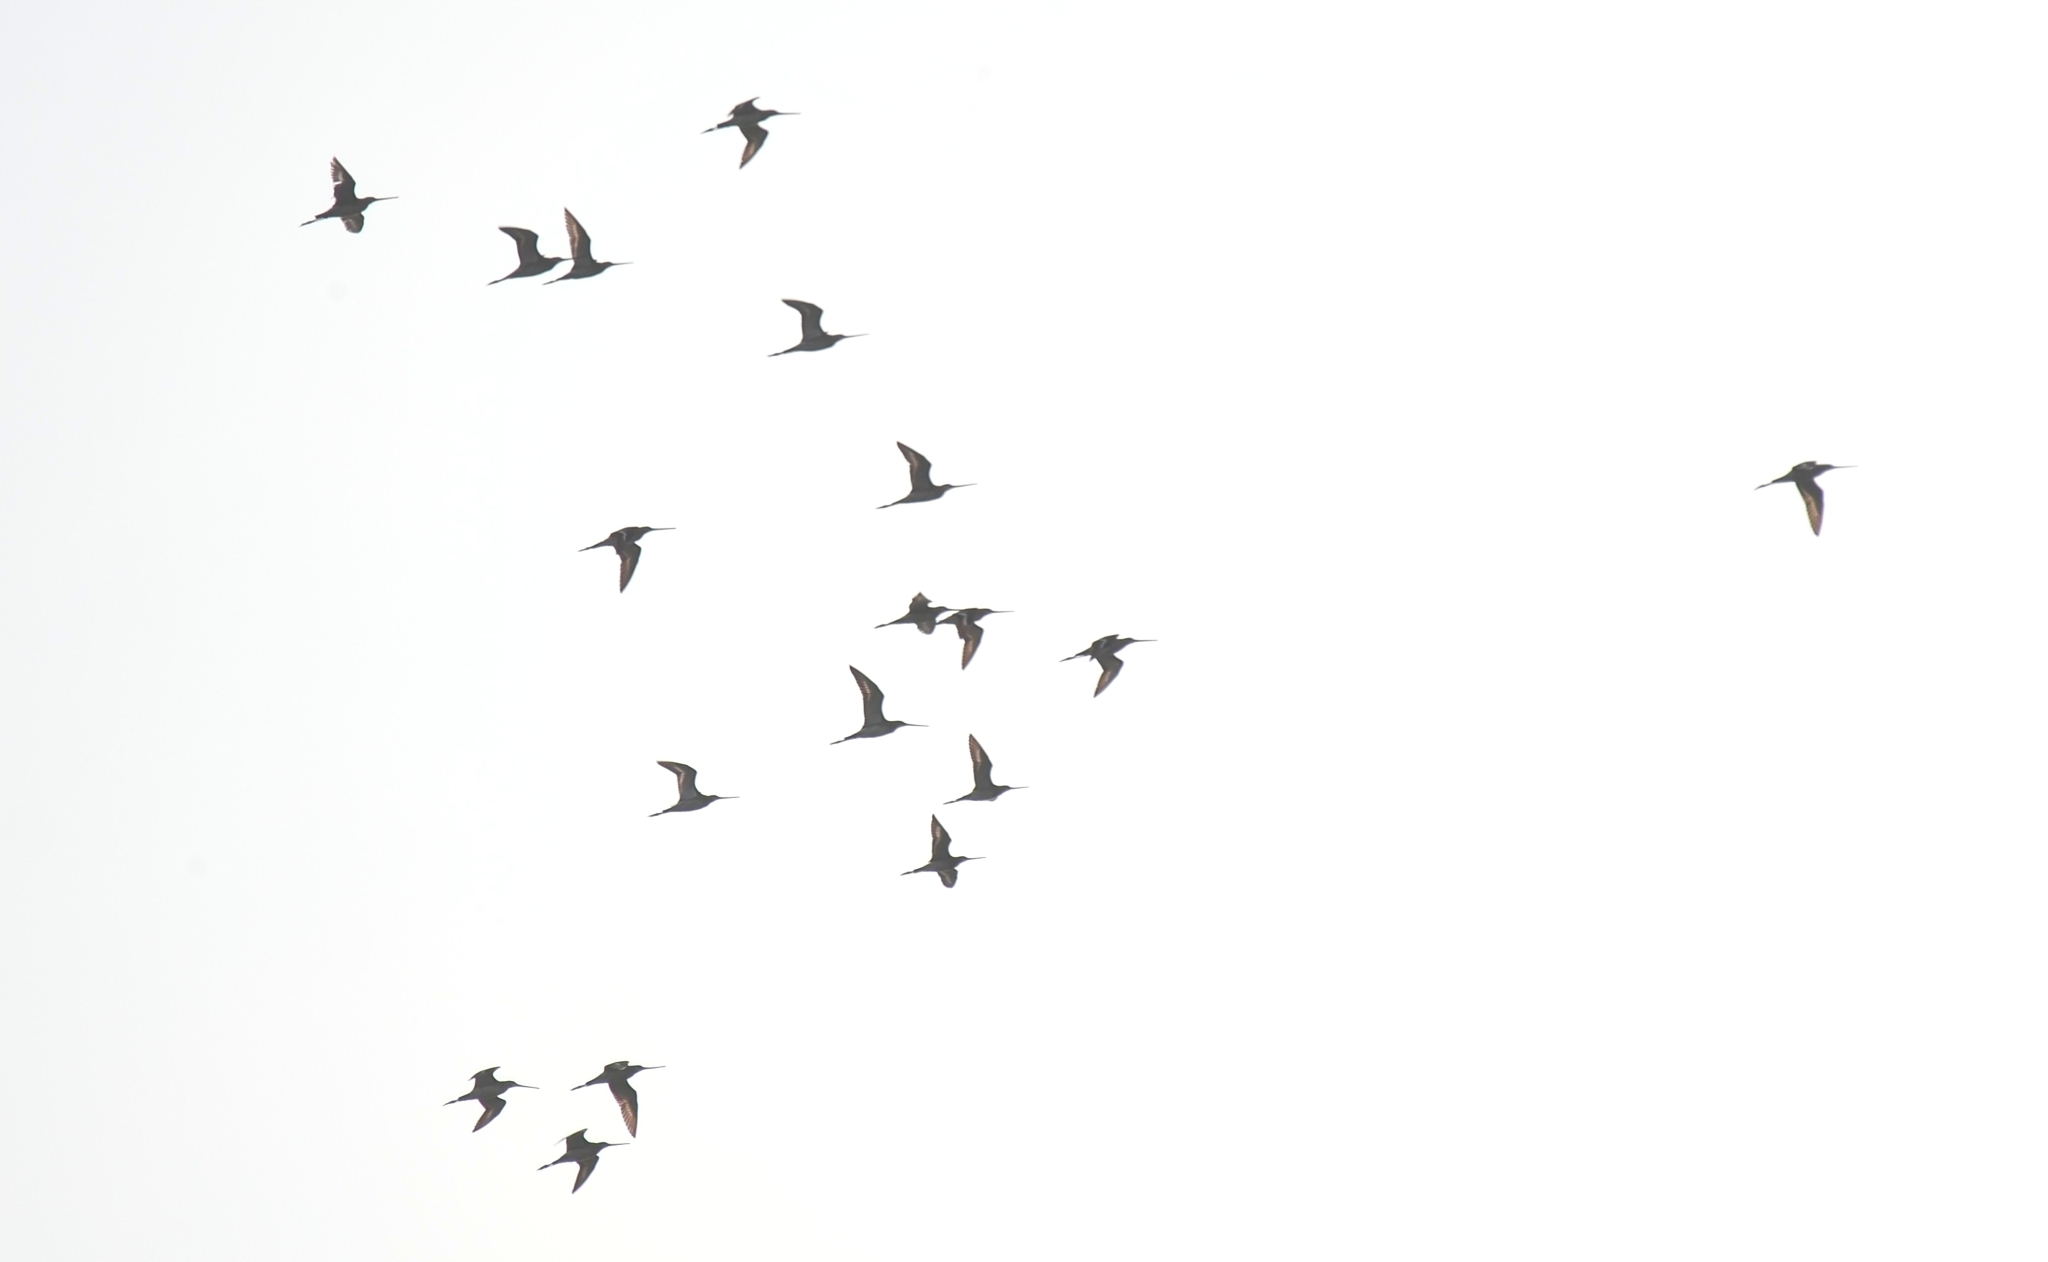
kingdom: Animalia
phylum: Chordata
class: Aves
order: Charadriiformes
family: Scolopacidae
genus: Limosa
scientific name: Limosa limosa
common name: Black-tailed godwit
